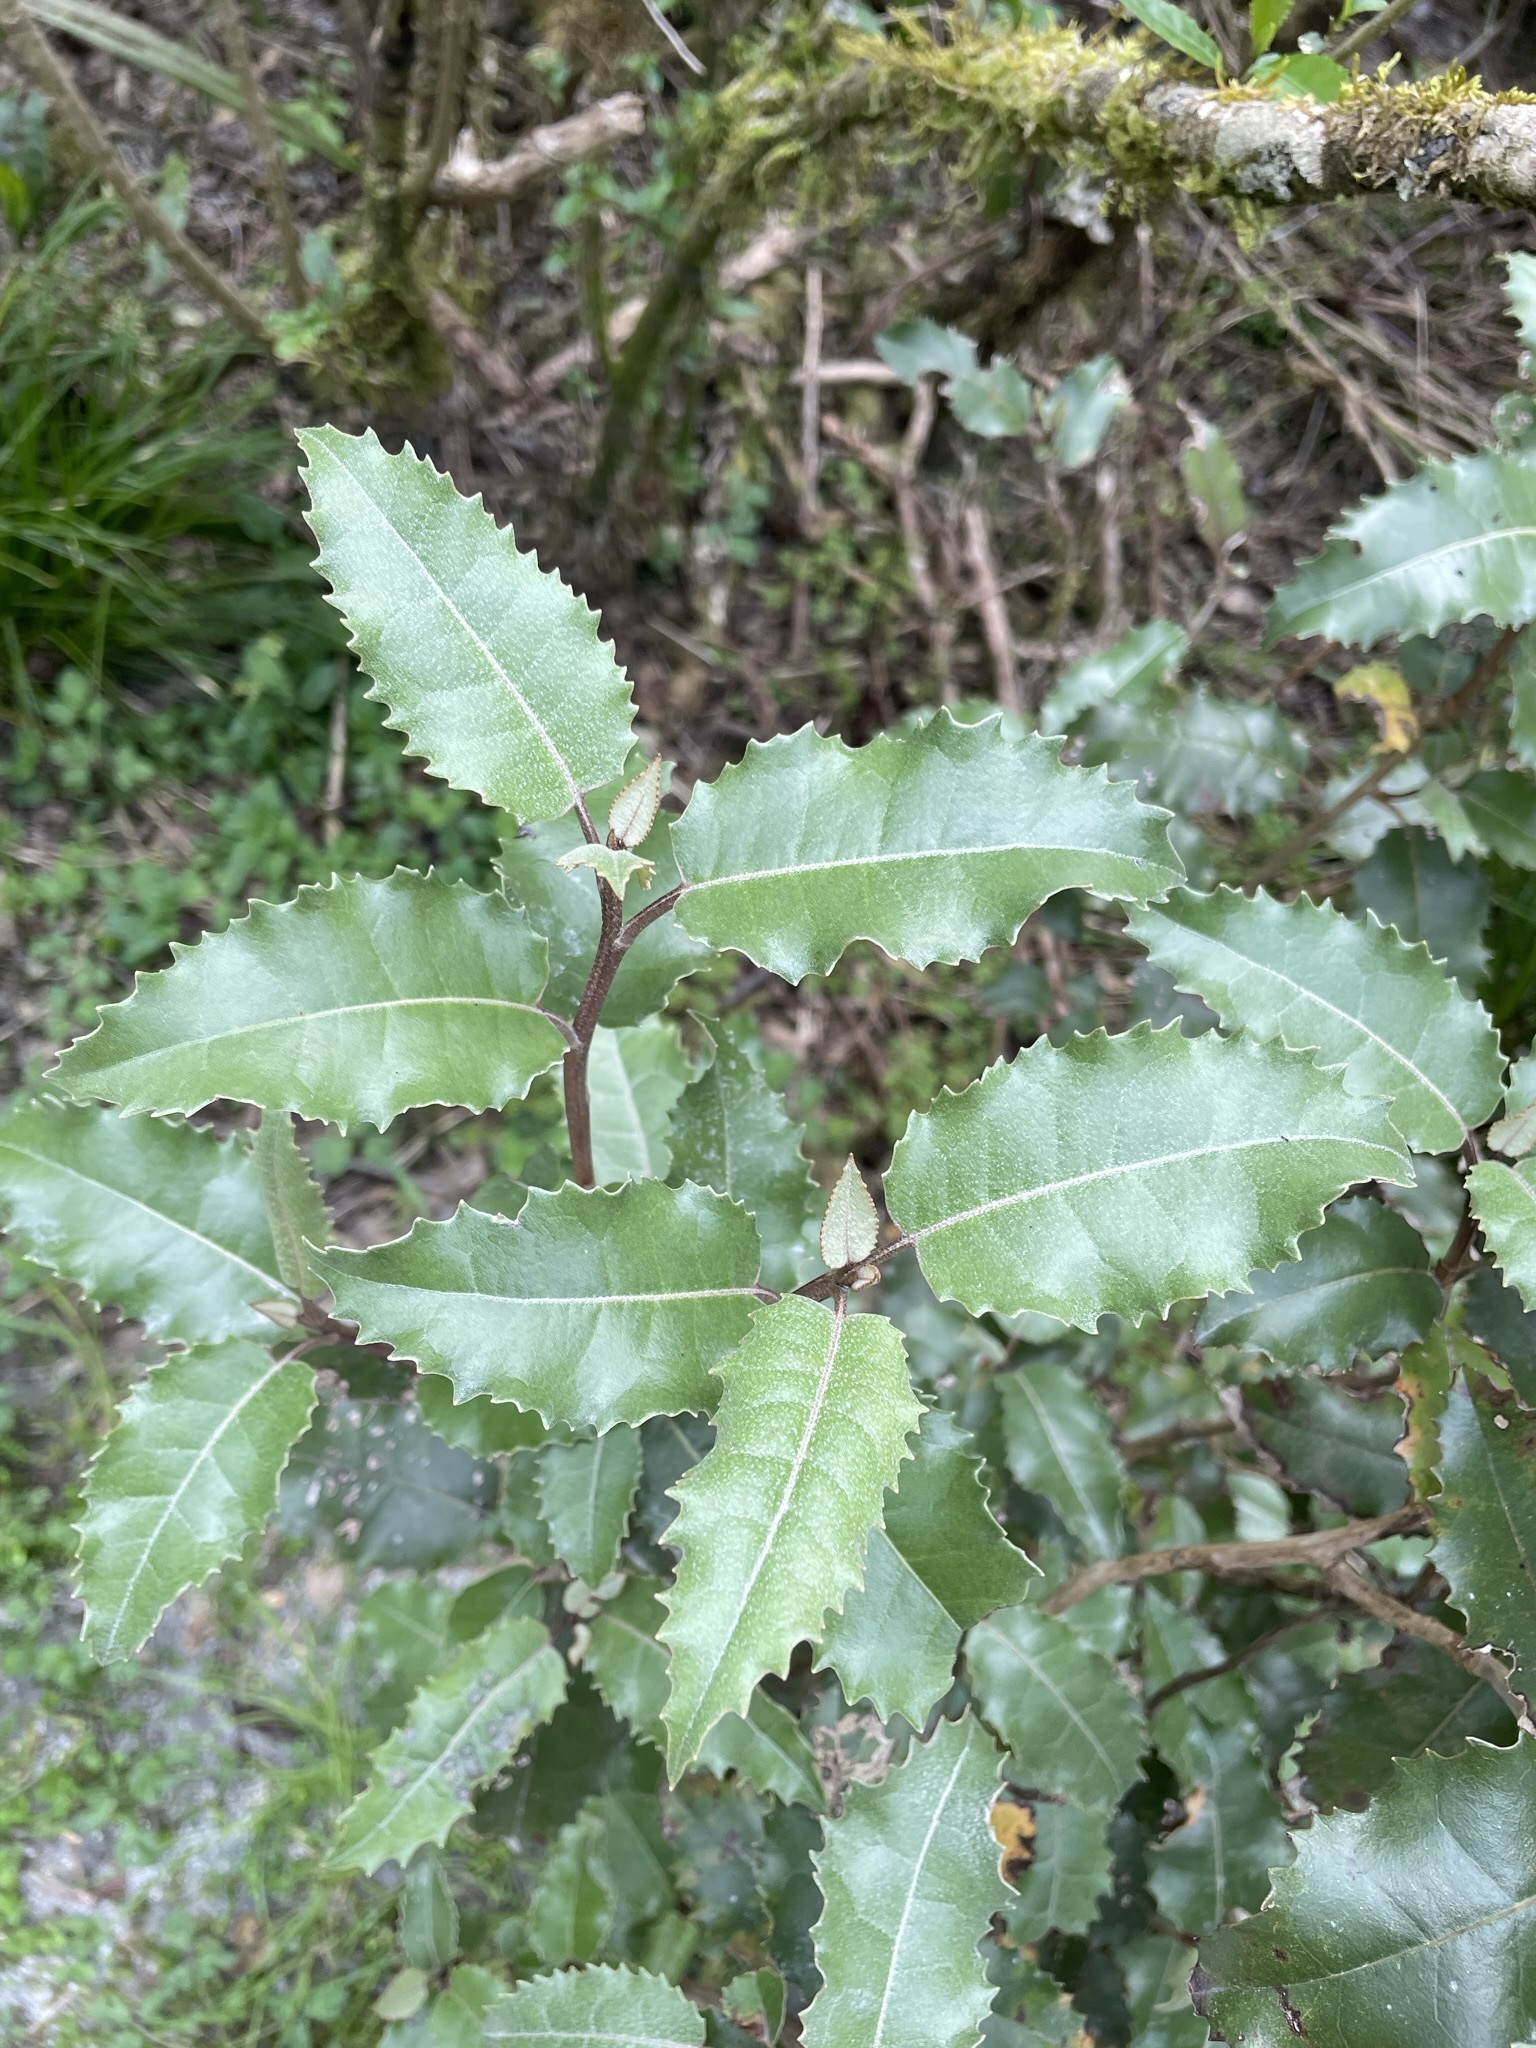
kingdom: Plantae
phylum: Tracheophyta
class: Magnoliopsida
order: Asterales
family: Asteraceae
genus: Olearia
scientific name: Olearia ilicifolia
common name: Maori-holly
